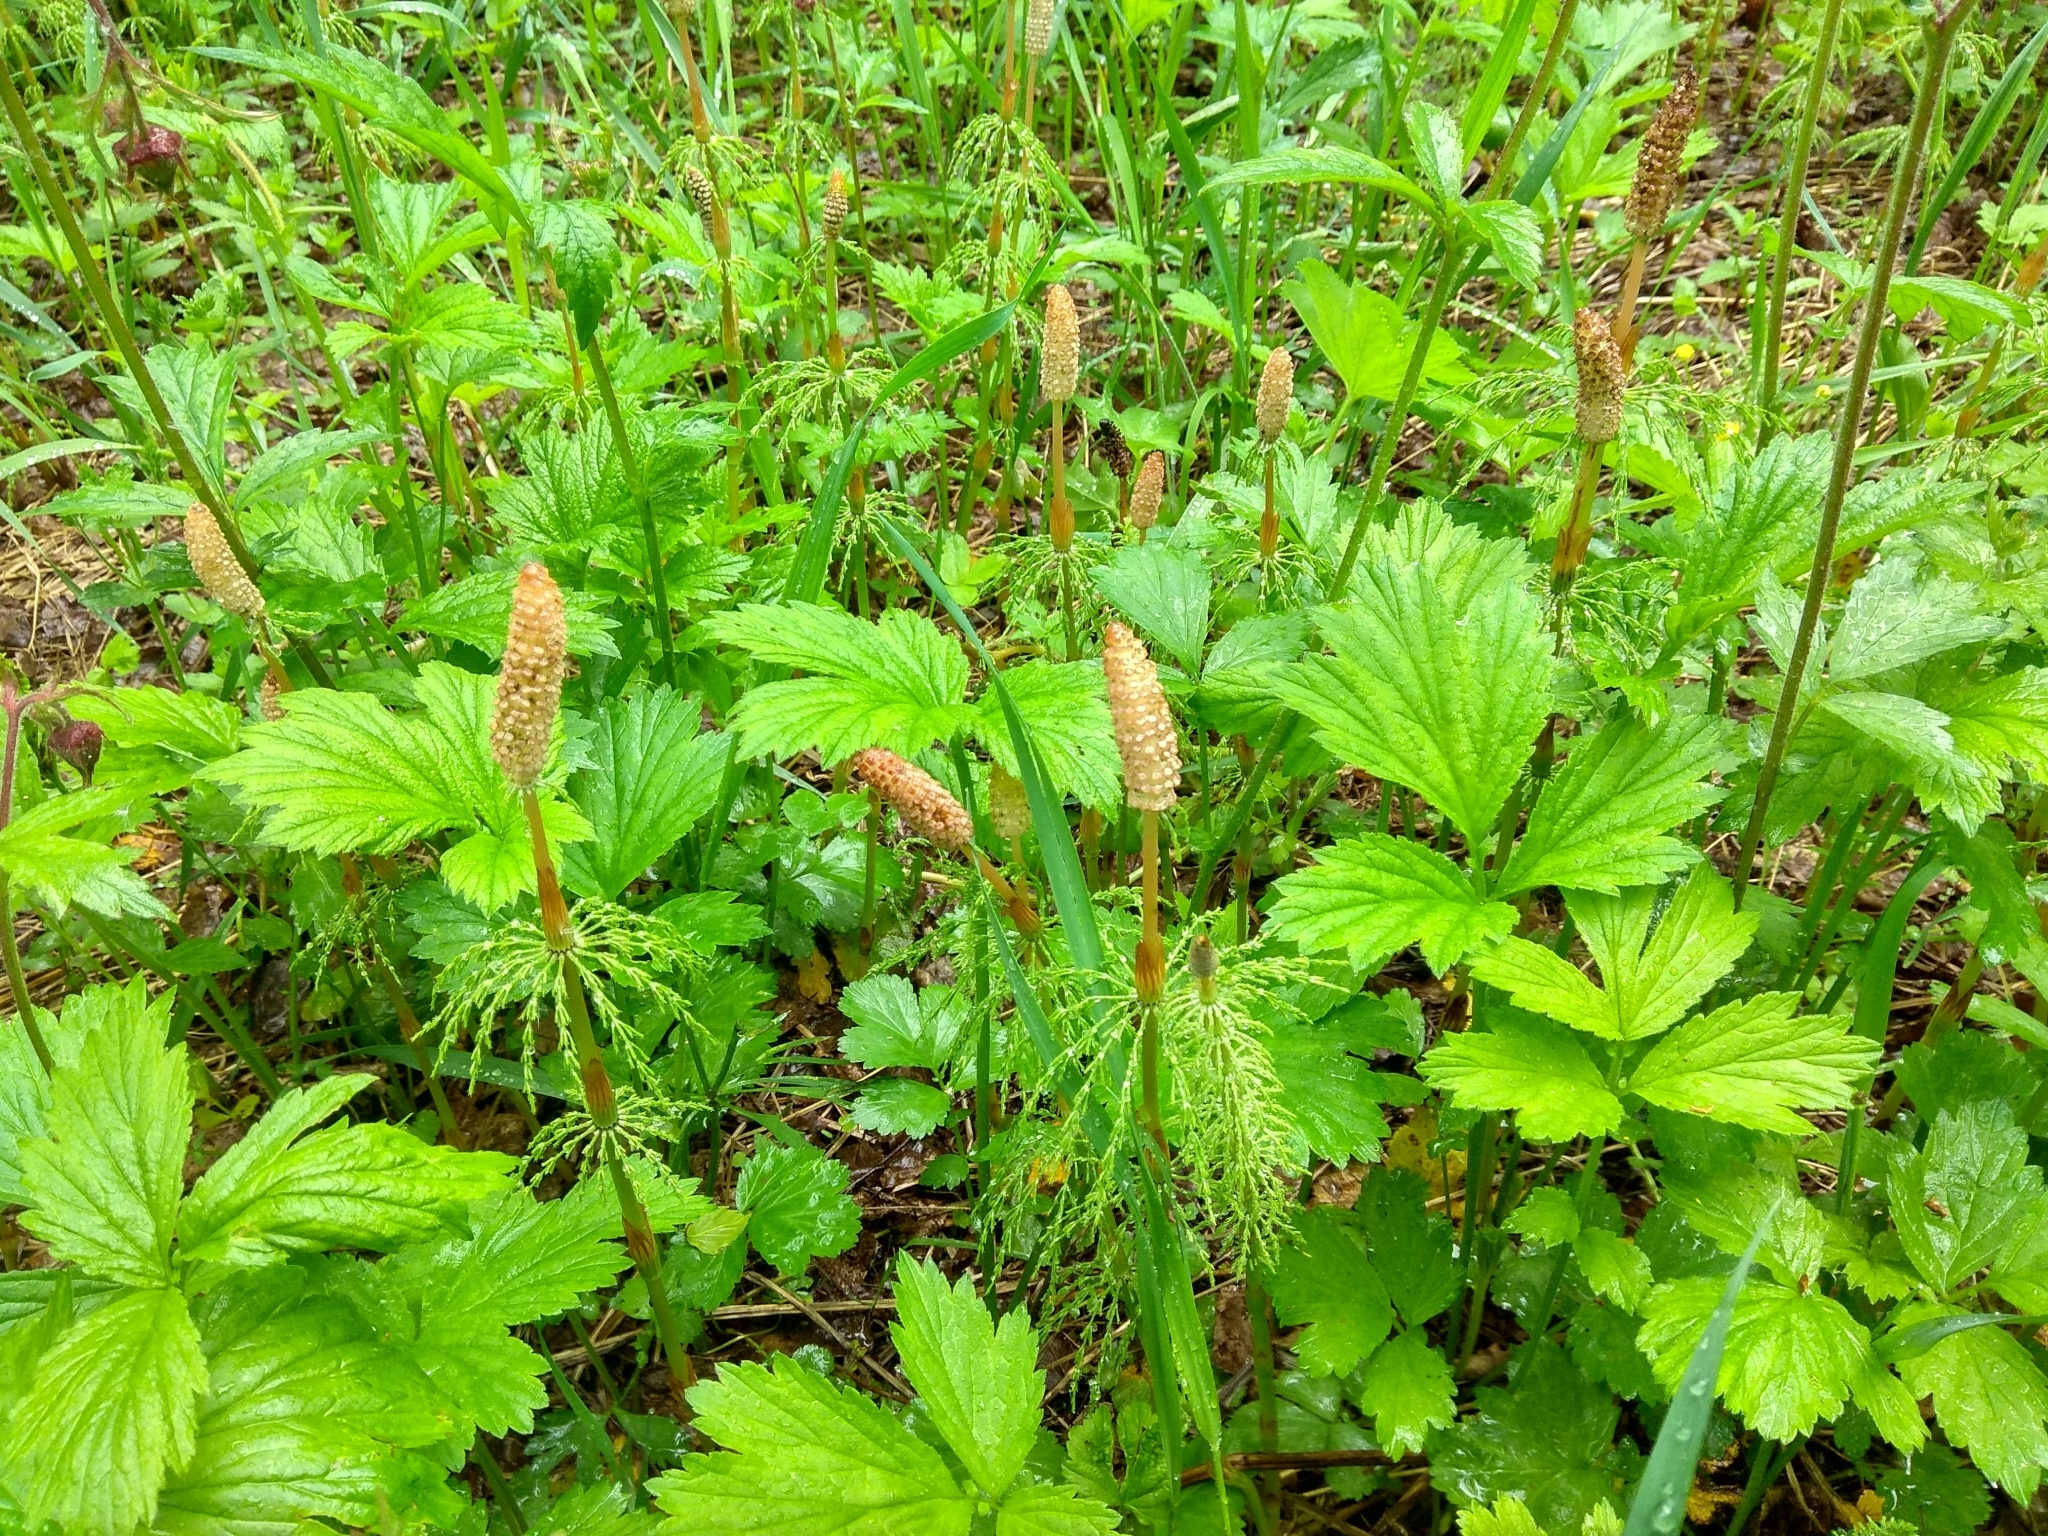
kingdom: Plantae
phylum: Tracheophyta
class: Polypodiopsida
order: Equisetales
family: Equisetaceae
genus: Equisetum
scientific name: Equisetum sylvaticum
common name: Wood horsetail
